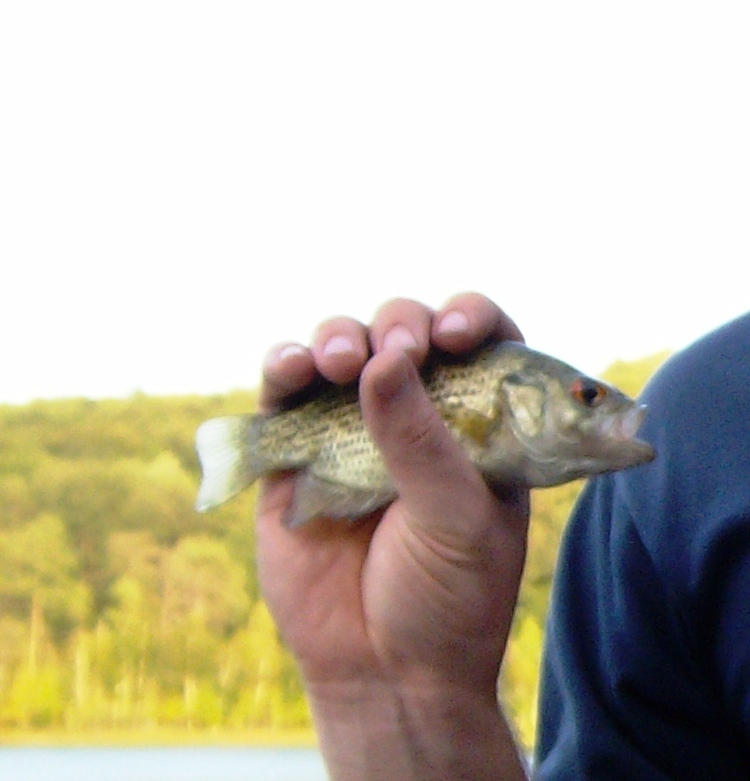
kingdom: Animalia
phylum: Chordata
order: Perciformes
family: Centrarchidae
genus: Ambloplites
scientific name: Ambloplites rupestris
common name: Rock bass
